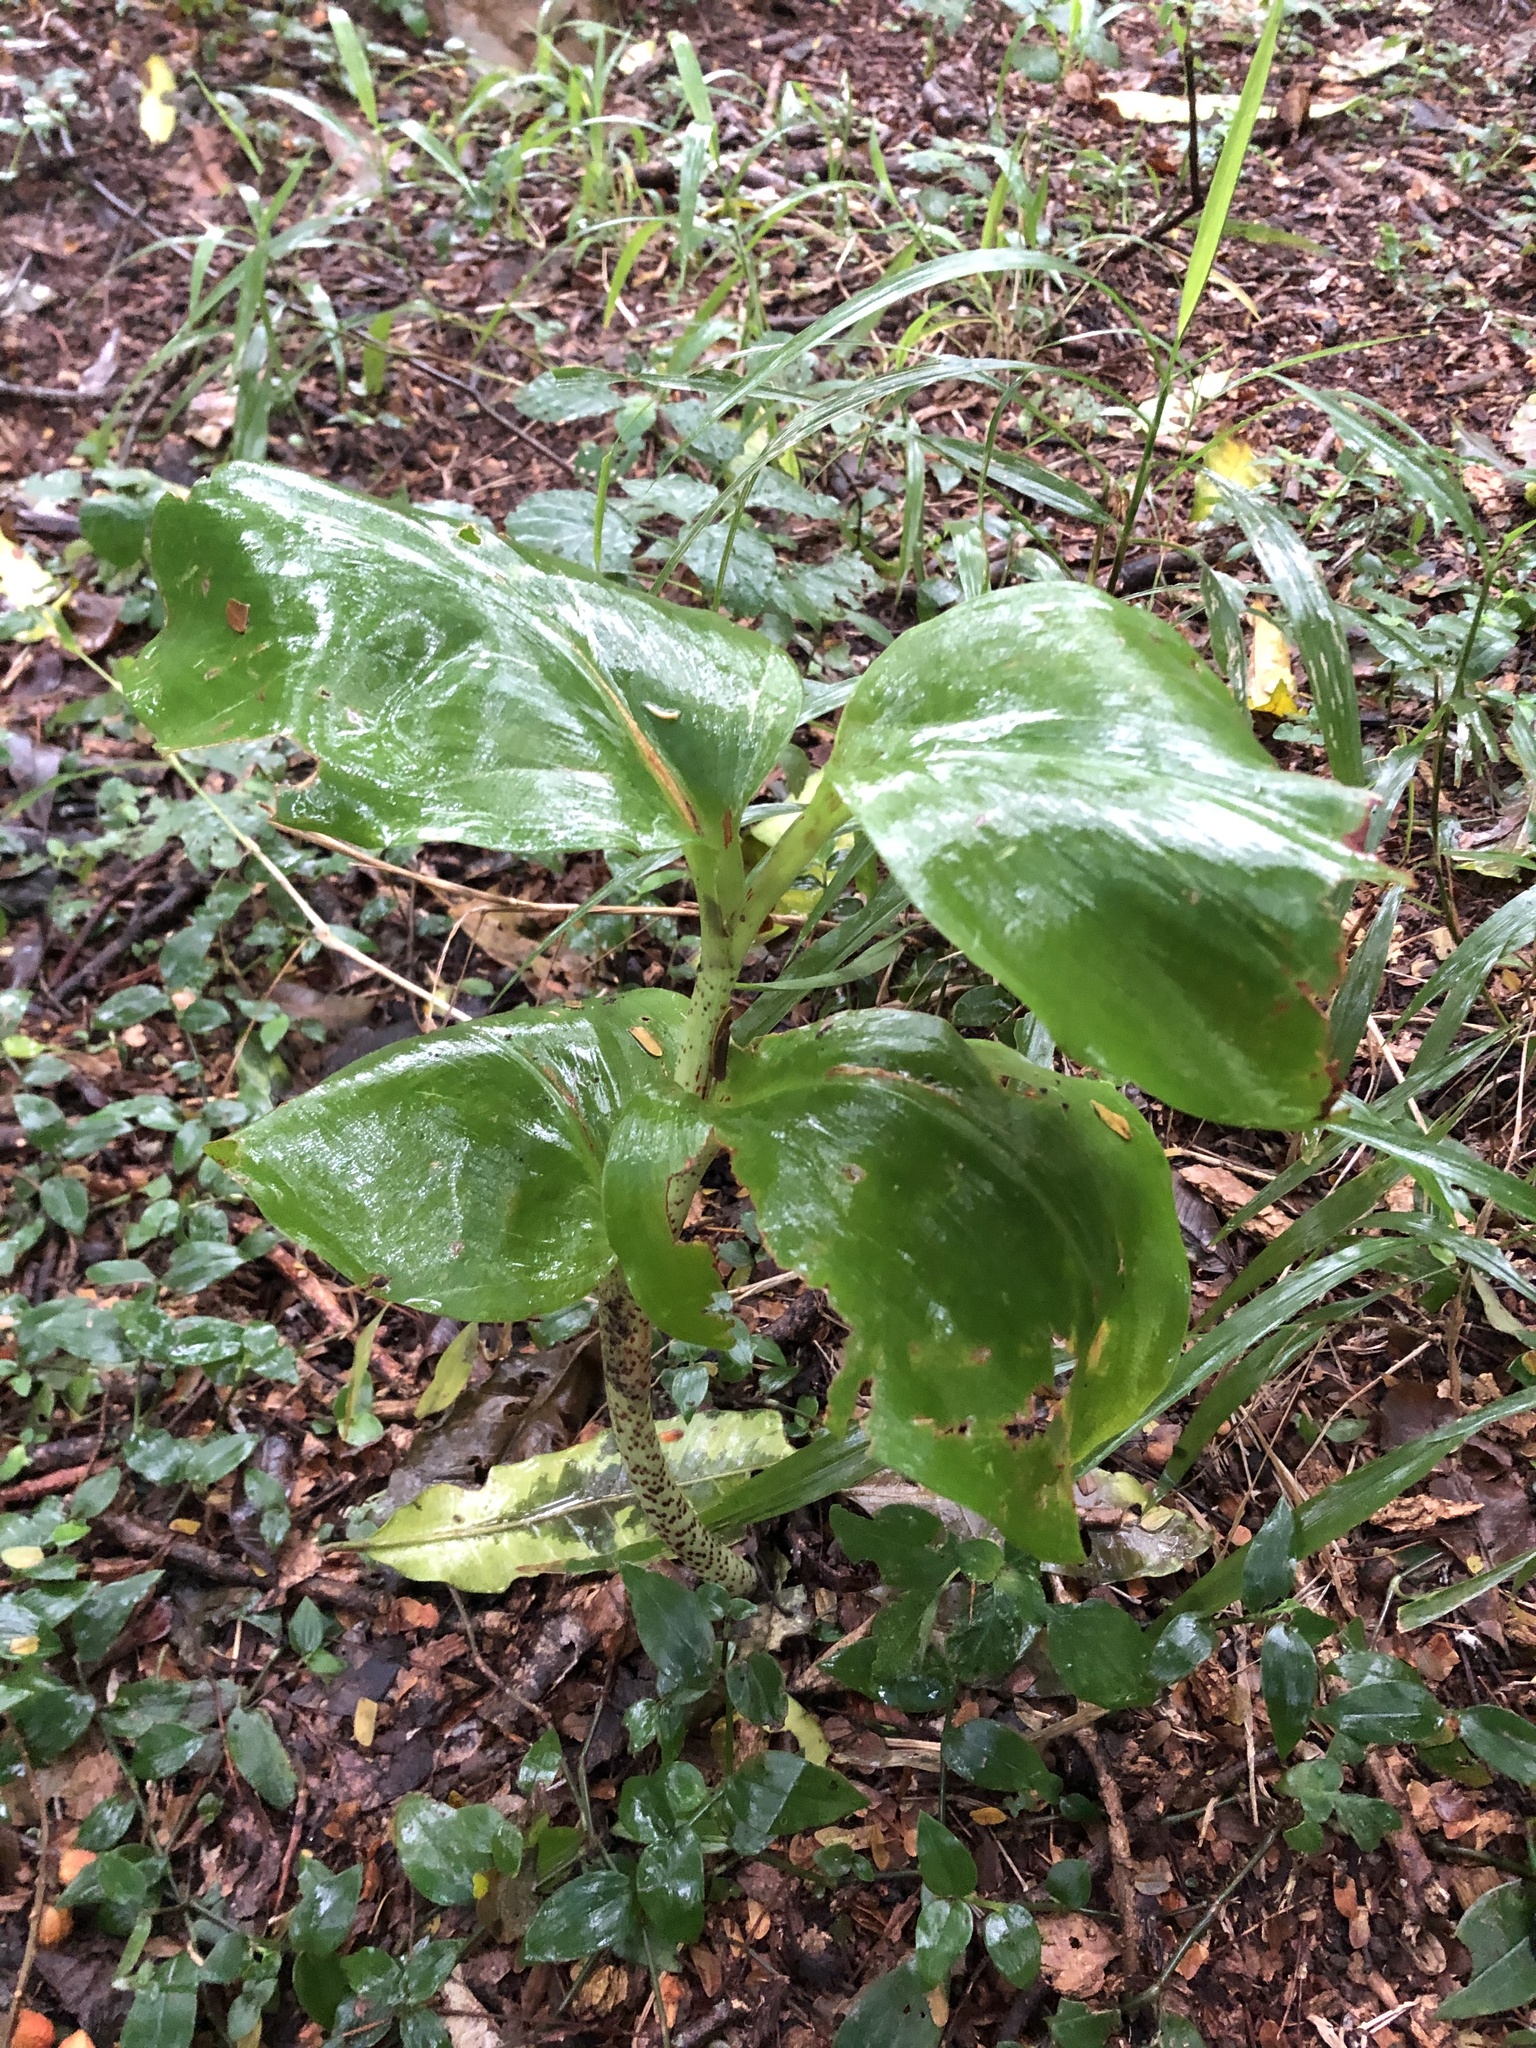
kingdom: Plantae
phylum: Tracheophyta
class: Liliopsida
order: Asparagales
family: Amaryllidaceae
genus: Scadoxus
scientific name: Scadoxus puniceus
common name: Royal-paintbrush
